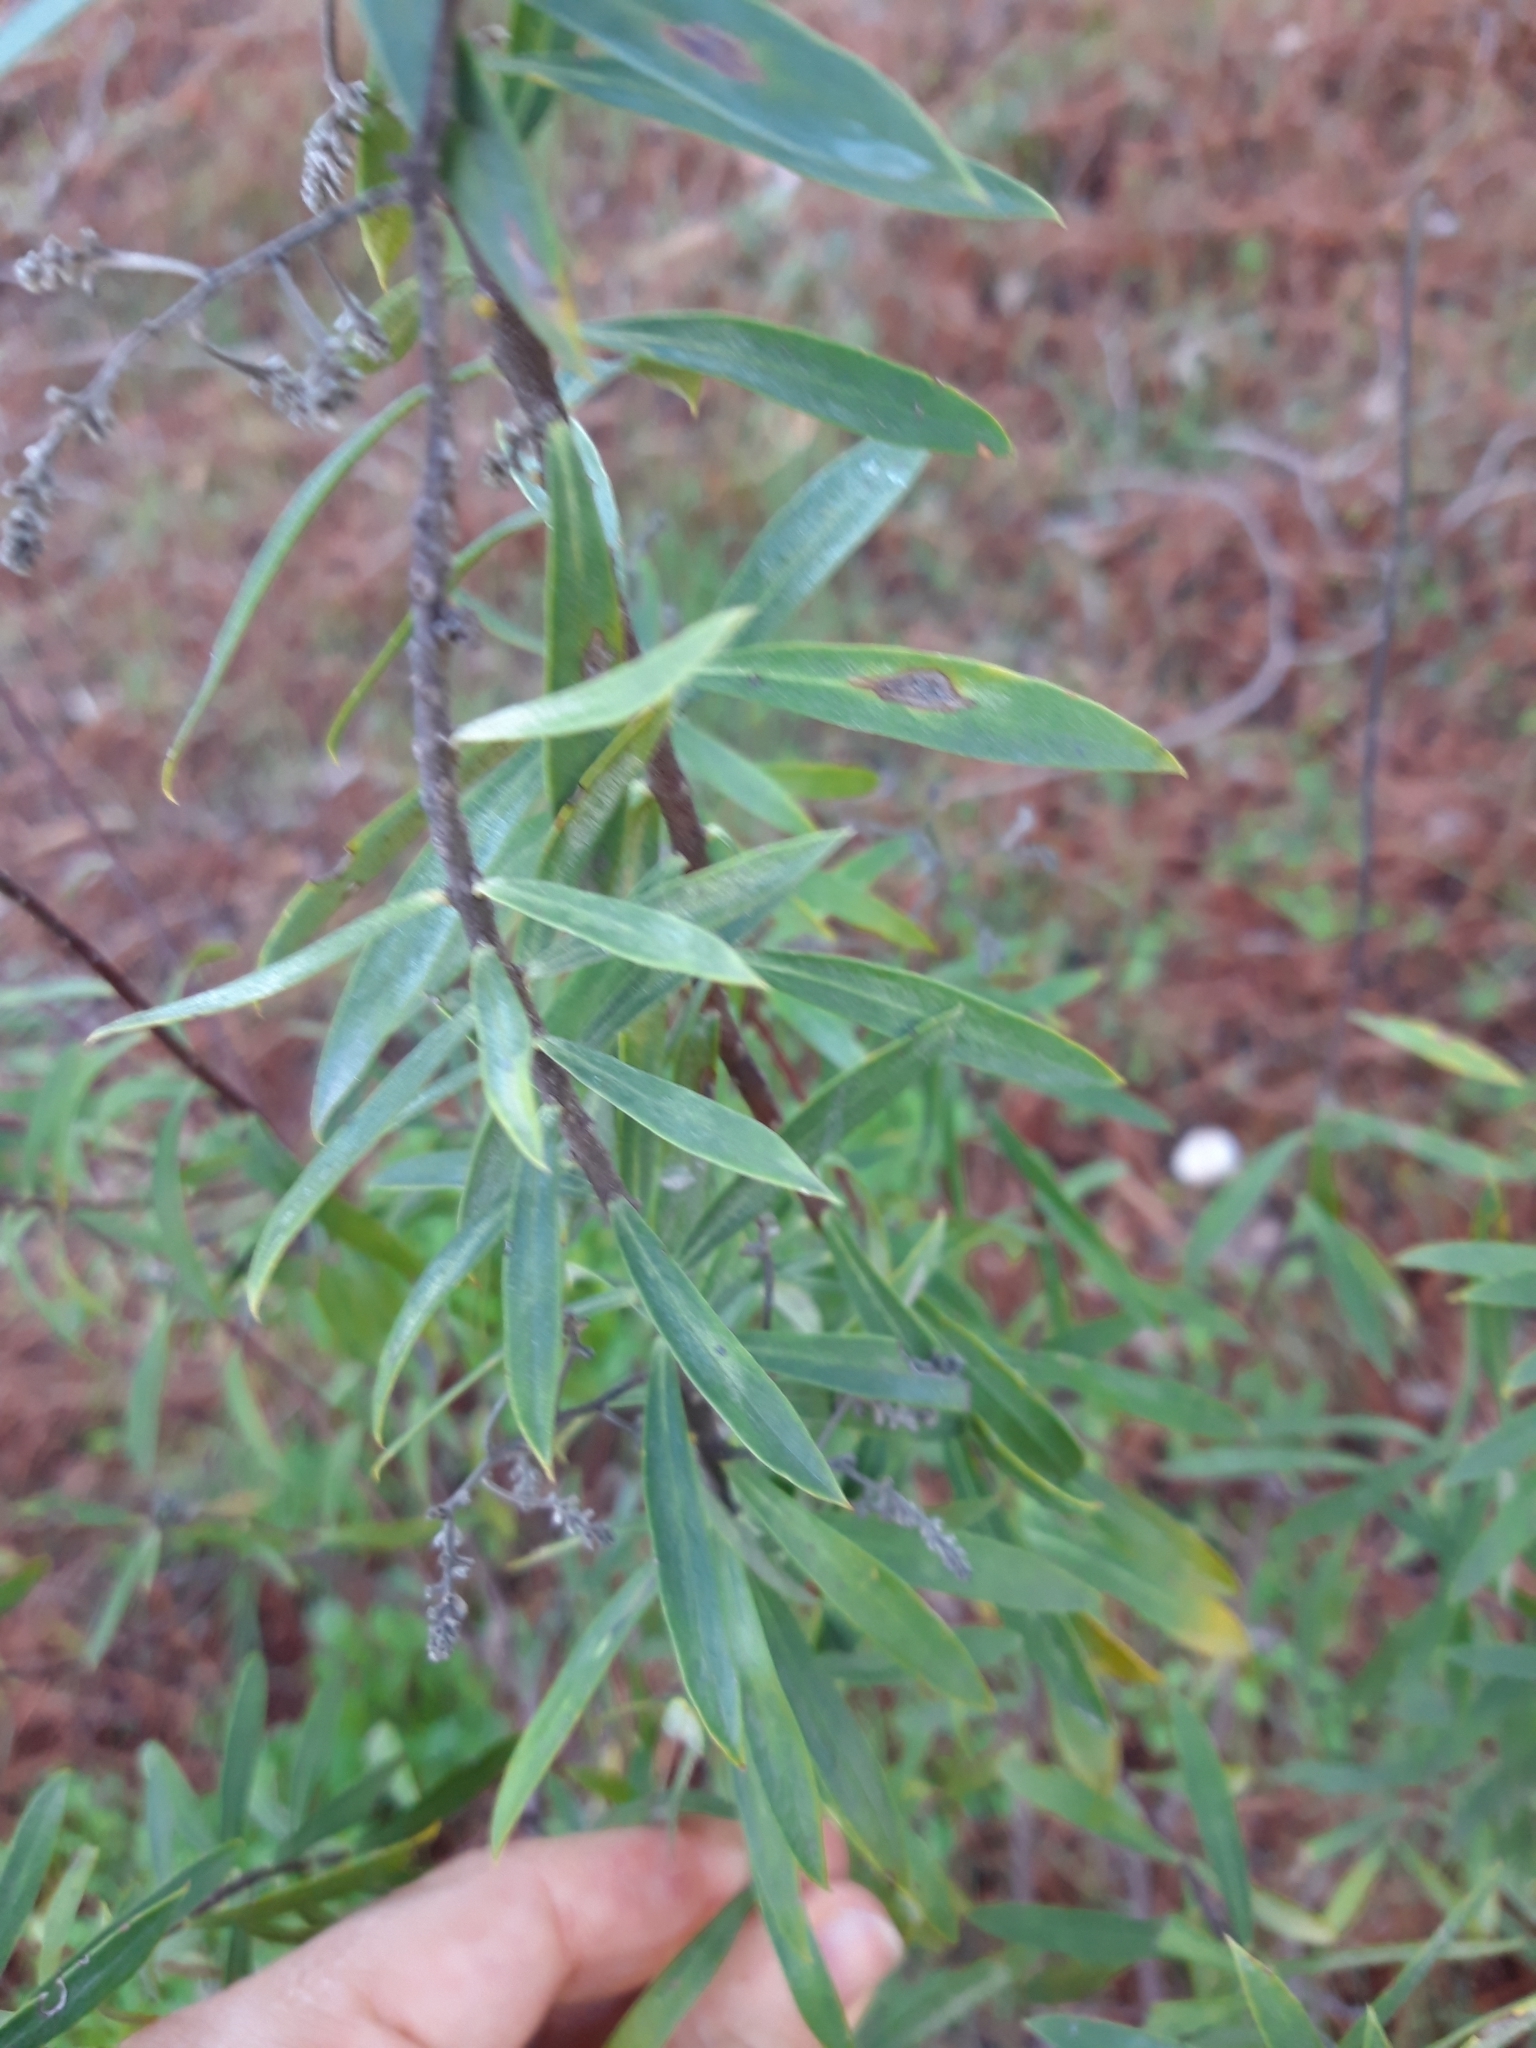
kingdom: Plantae
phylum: Tracheophyta
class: Magnoliopsida
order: Malvales
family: Thymelaeaceae
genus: Daphne
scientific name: Daphne gnidium
